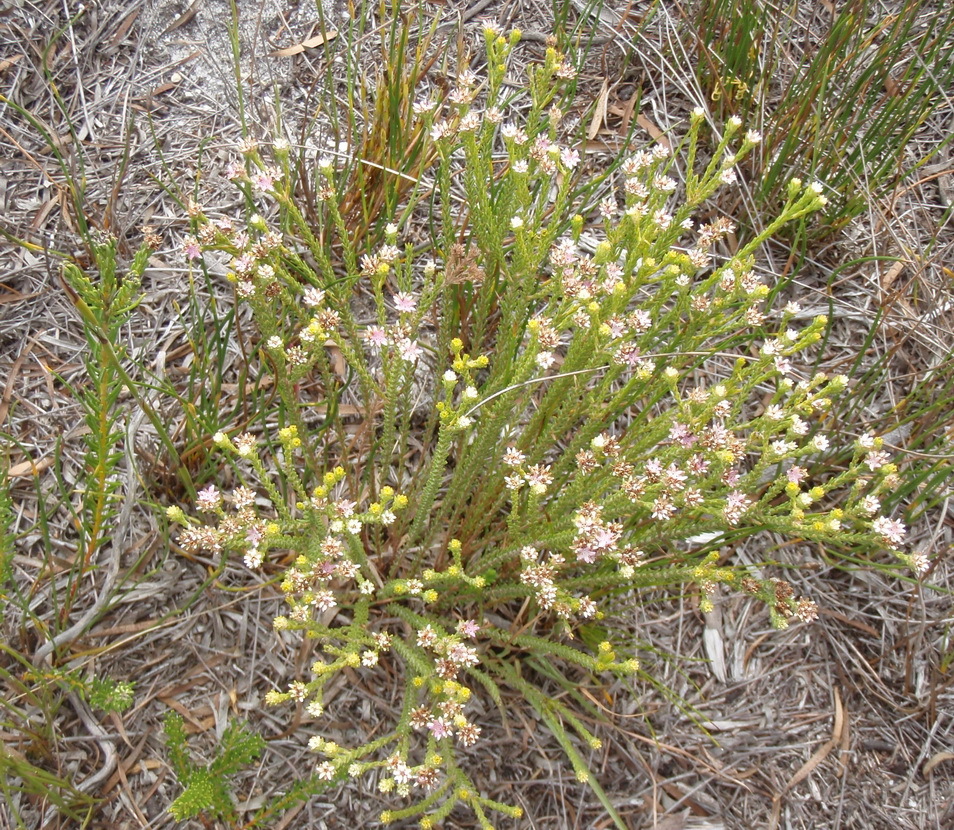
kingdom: Plantae
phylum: Tracheophyta
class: Magnoliopsida
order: Bruniales
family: Bruniaceae
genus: Staavia
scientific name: Staavia capitella
